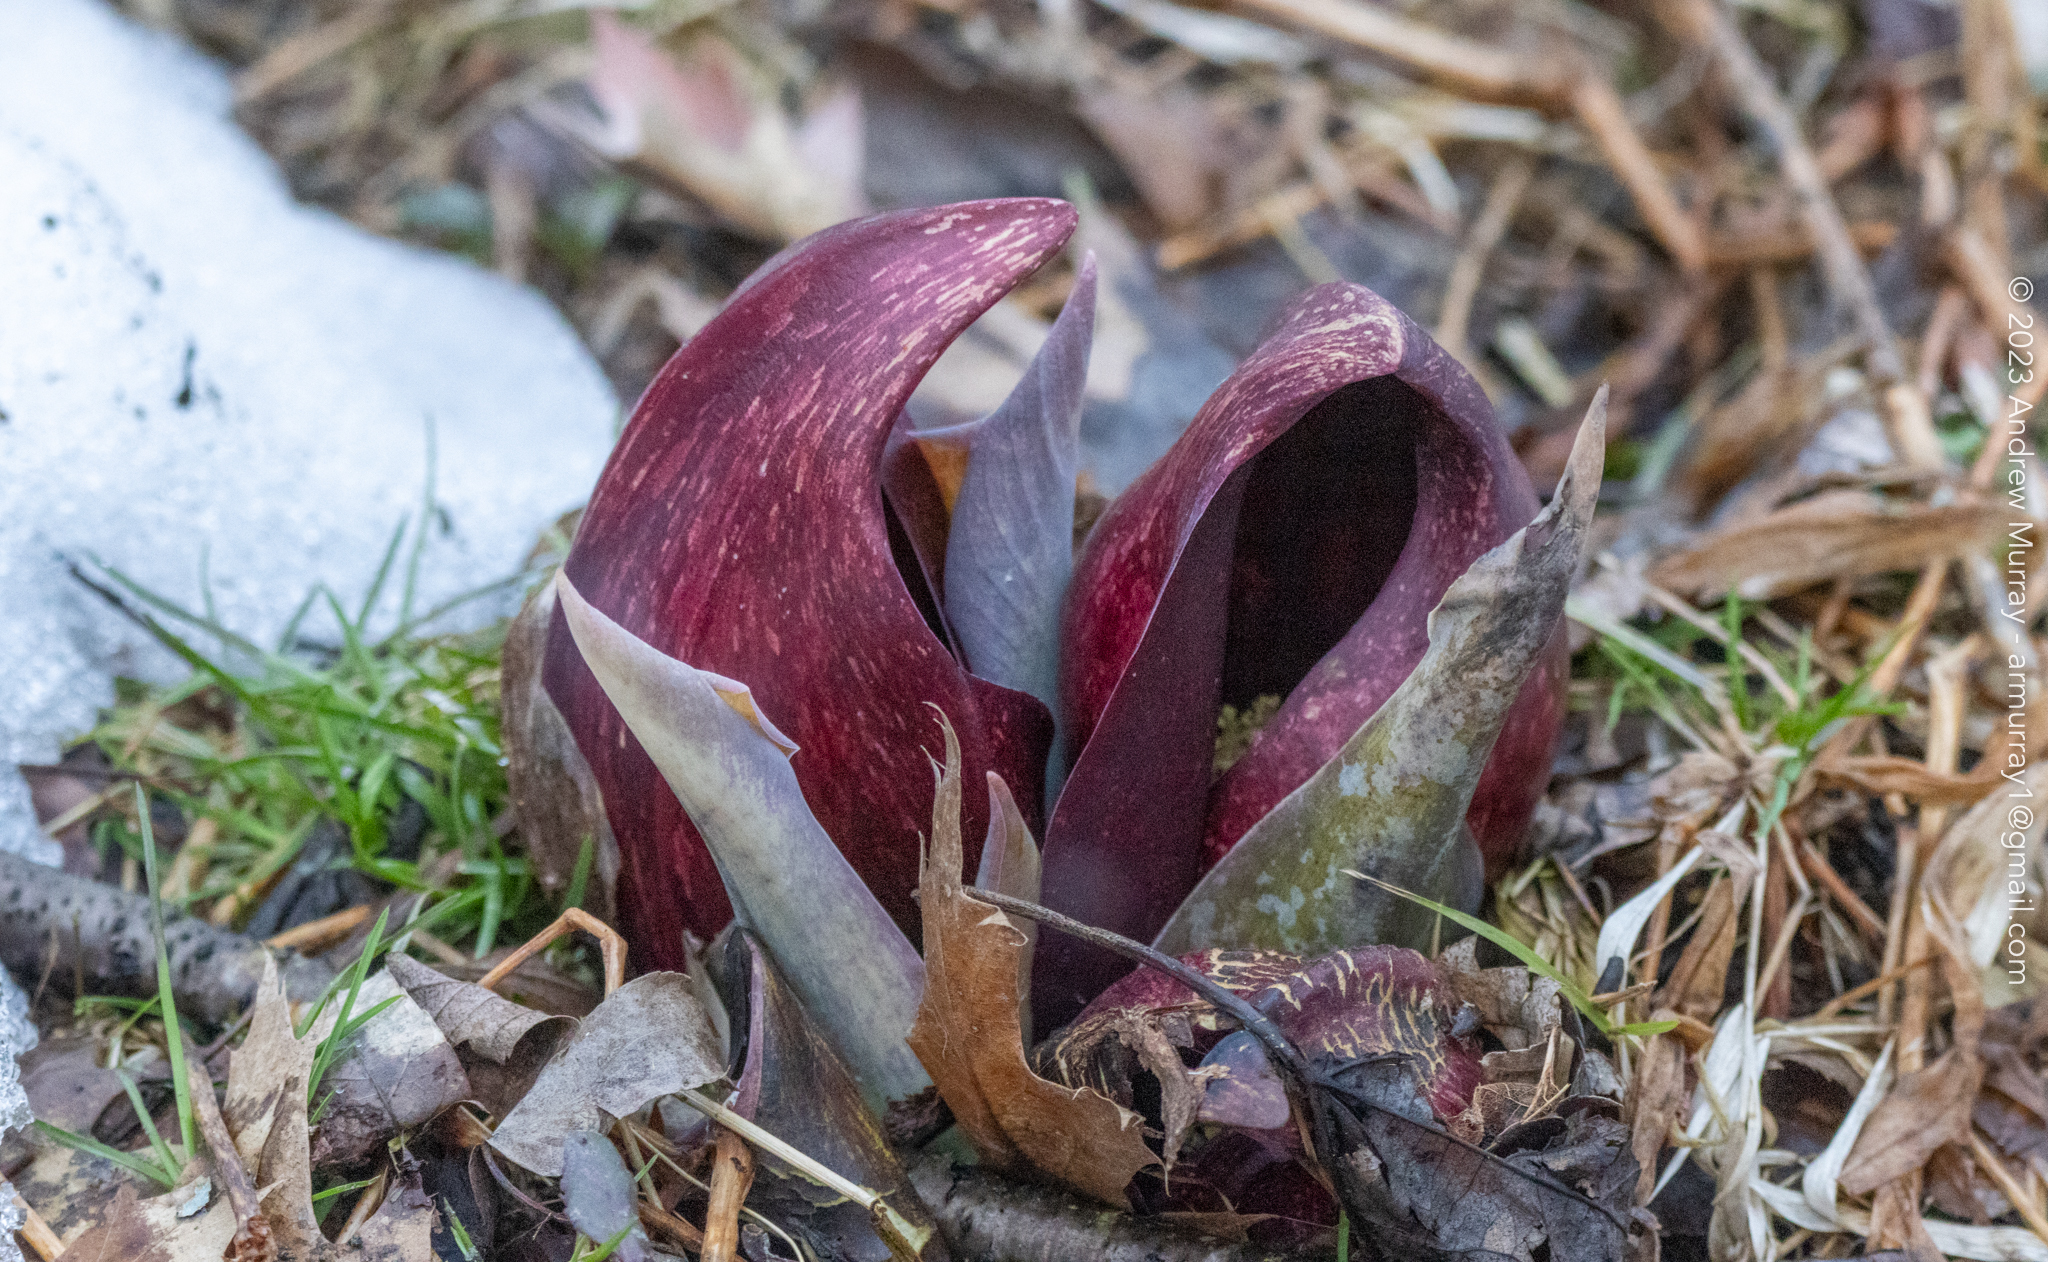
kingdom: Plantae
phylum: Tracheophyta
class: Liliopsida
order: Alismatales
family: Araceae
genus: Symplocarpus
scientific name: Symplocarpus foetidus
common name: Eastern skunk cabbage
